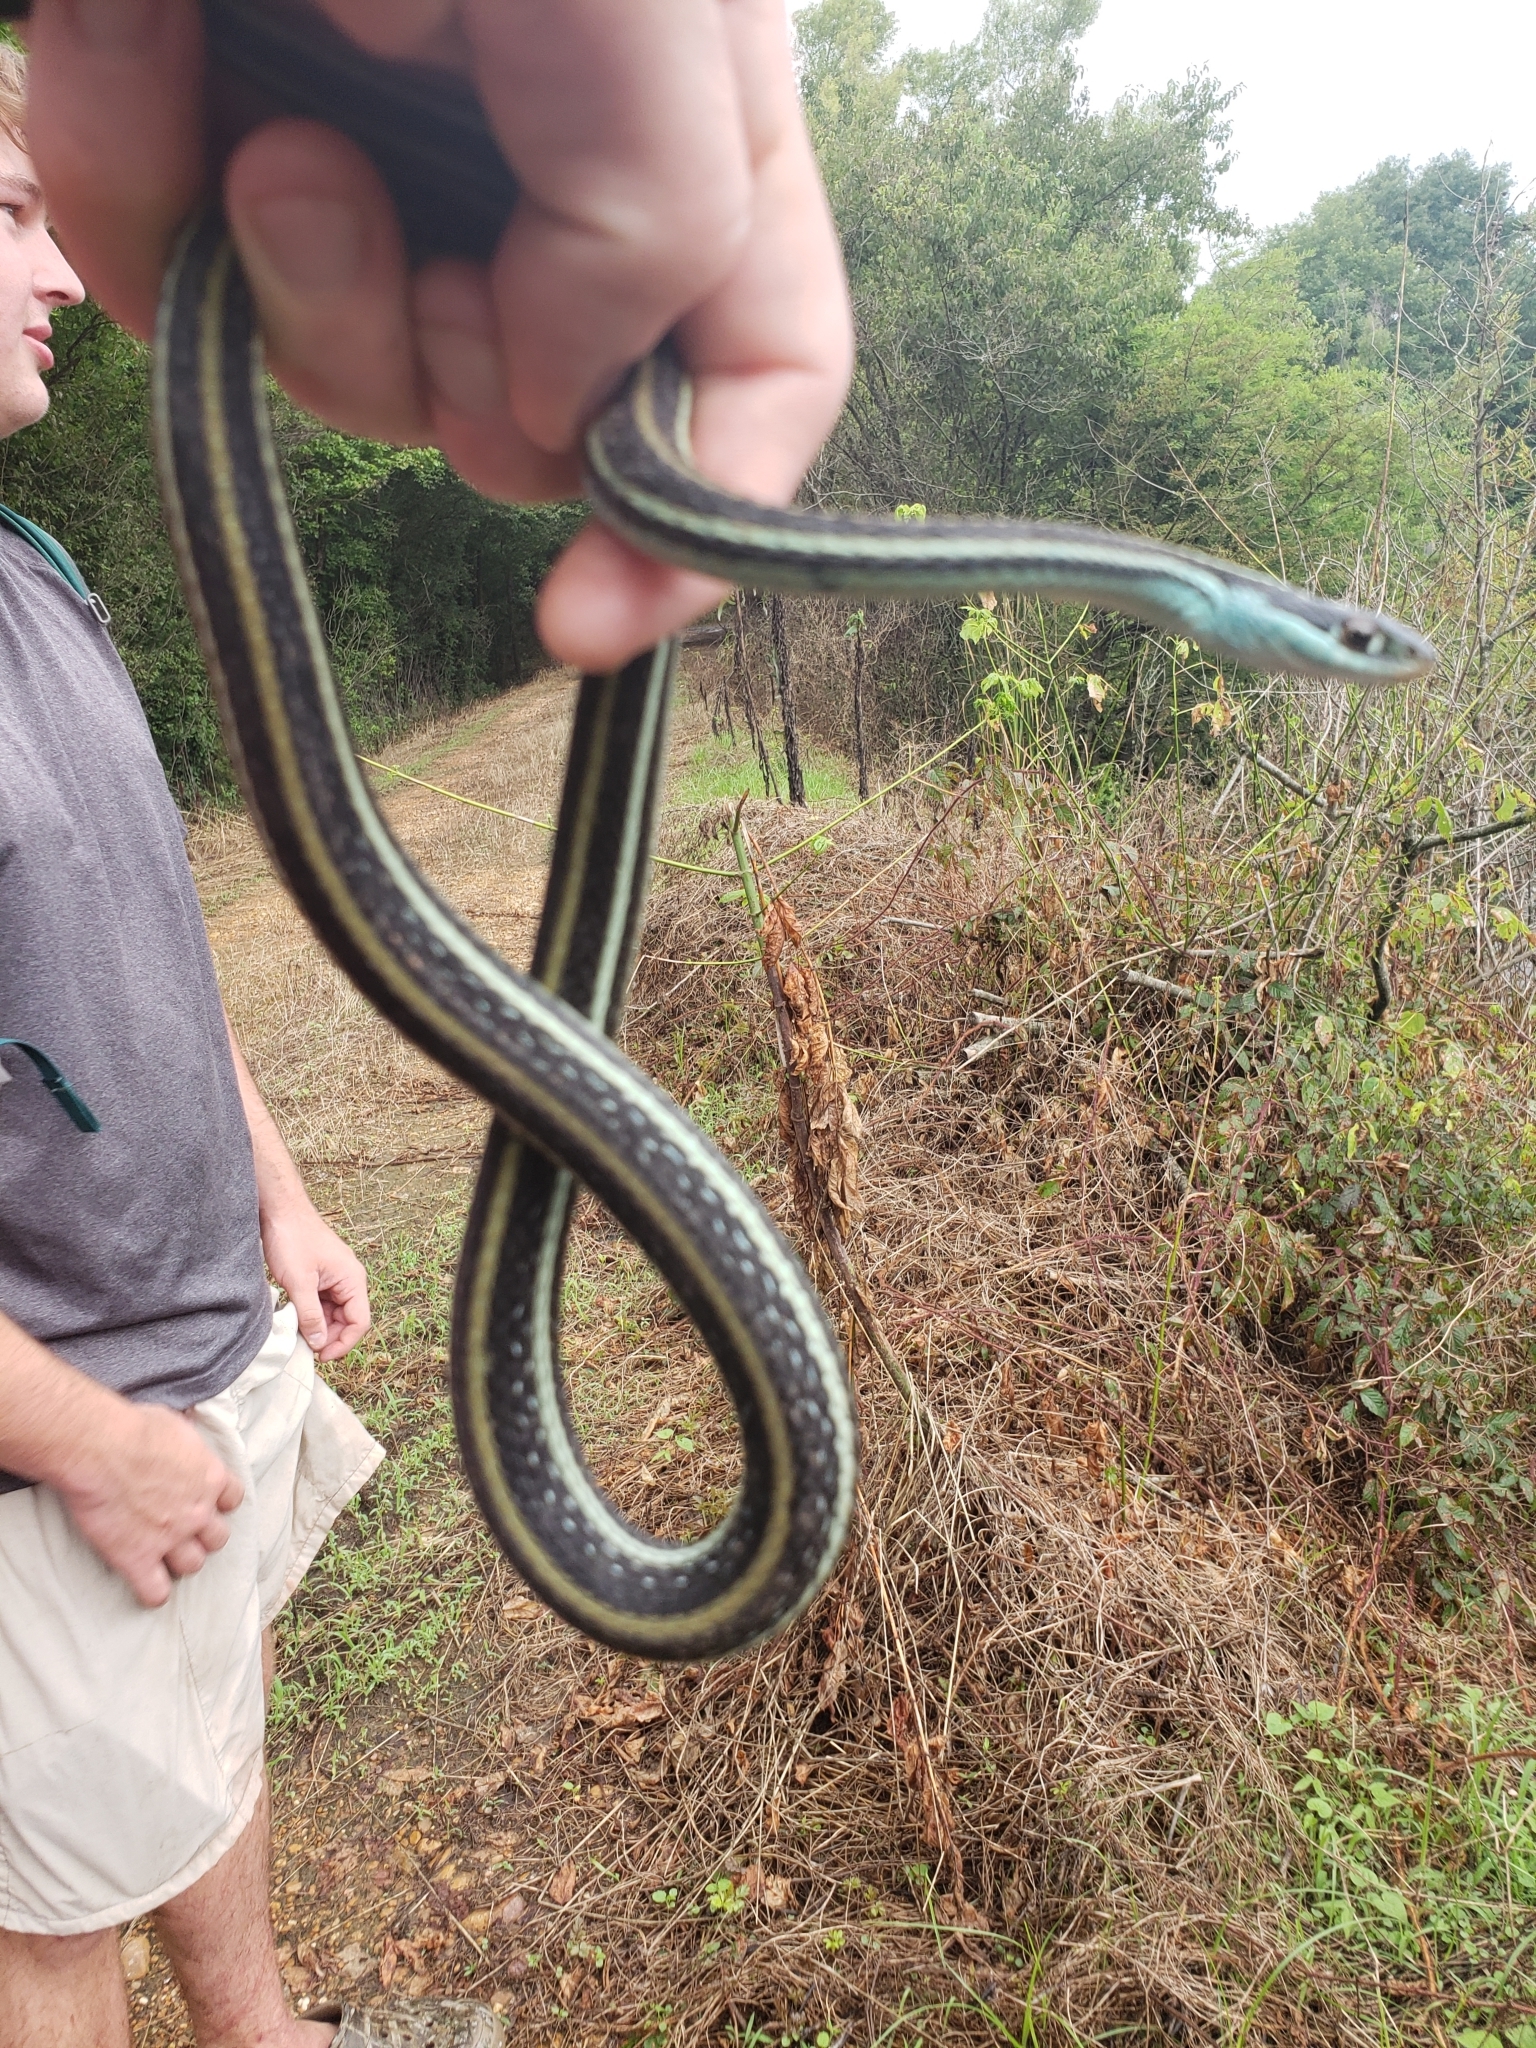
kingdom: Animalia
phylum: Chordata
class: Squamata
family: Colubridae
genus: Thamnophis
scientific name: Thamnophis proximus
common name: Western ribbon snake
